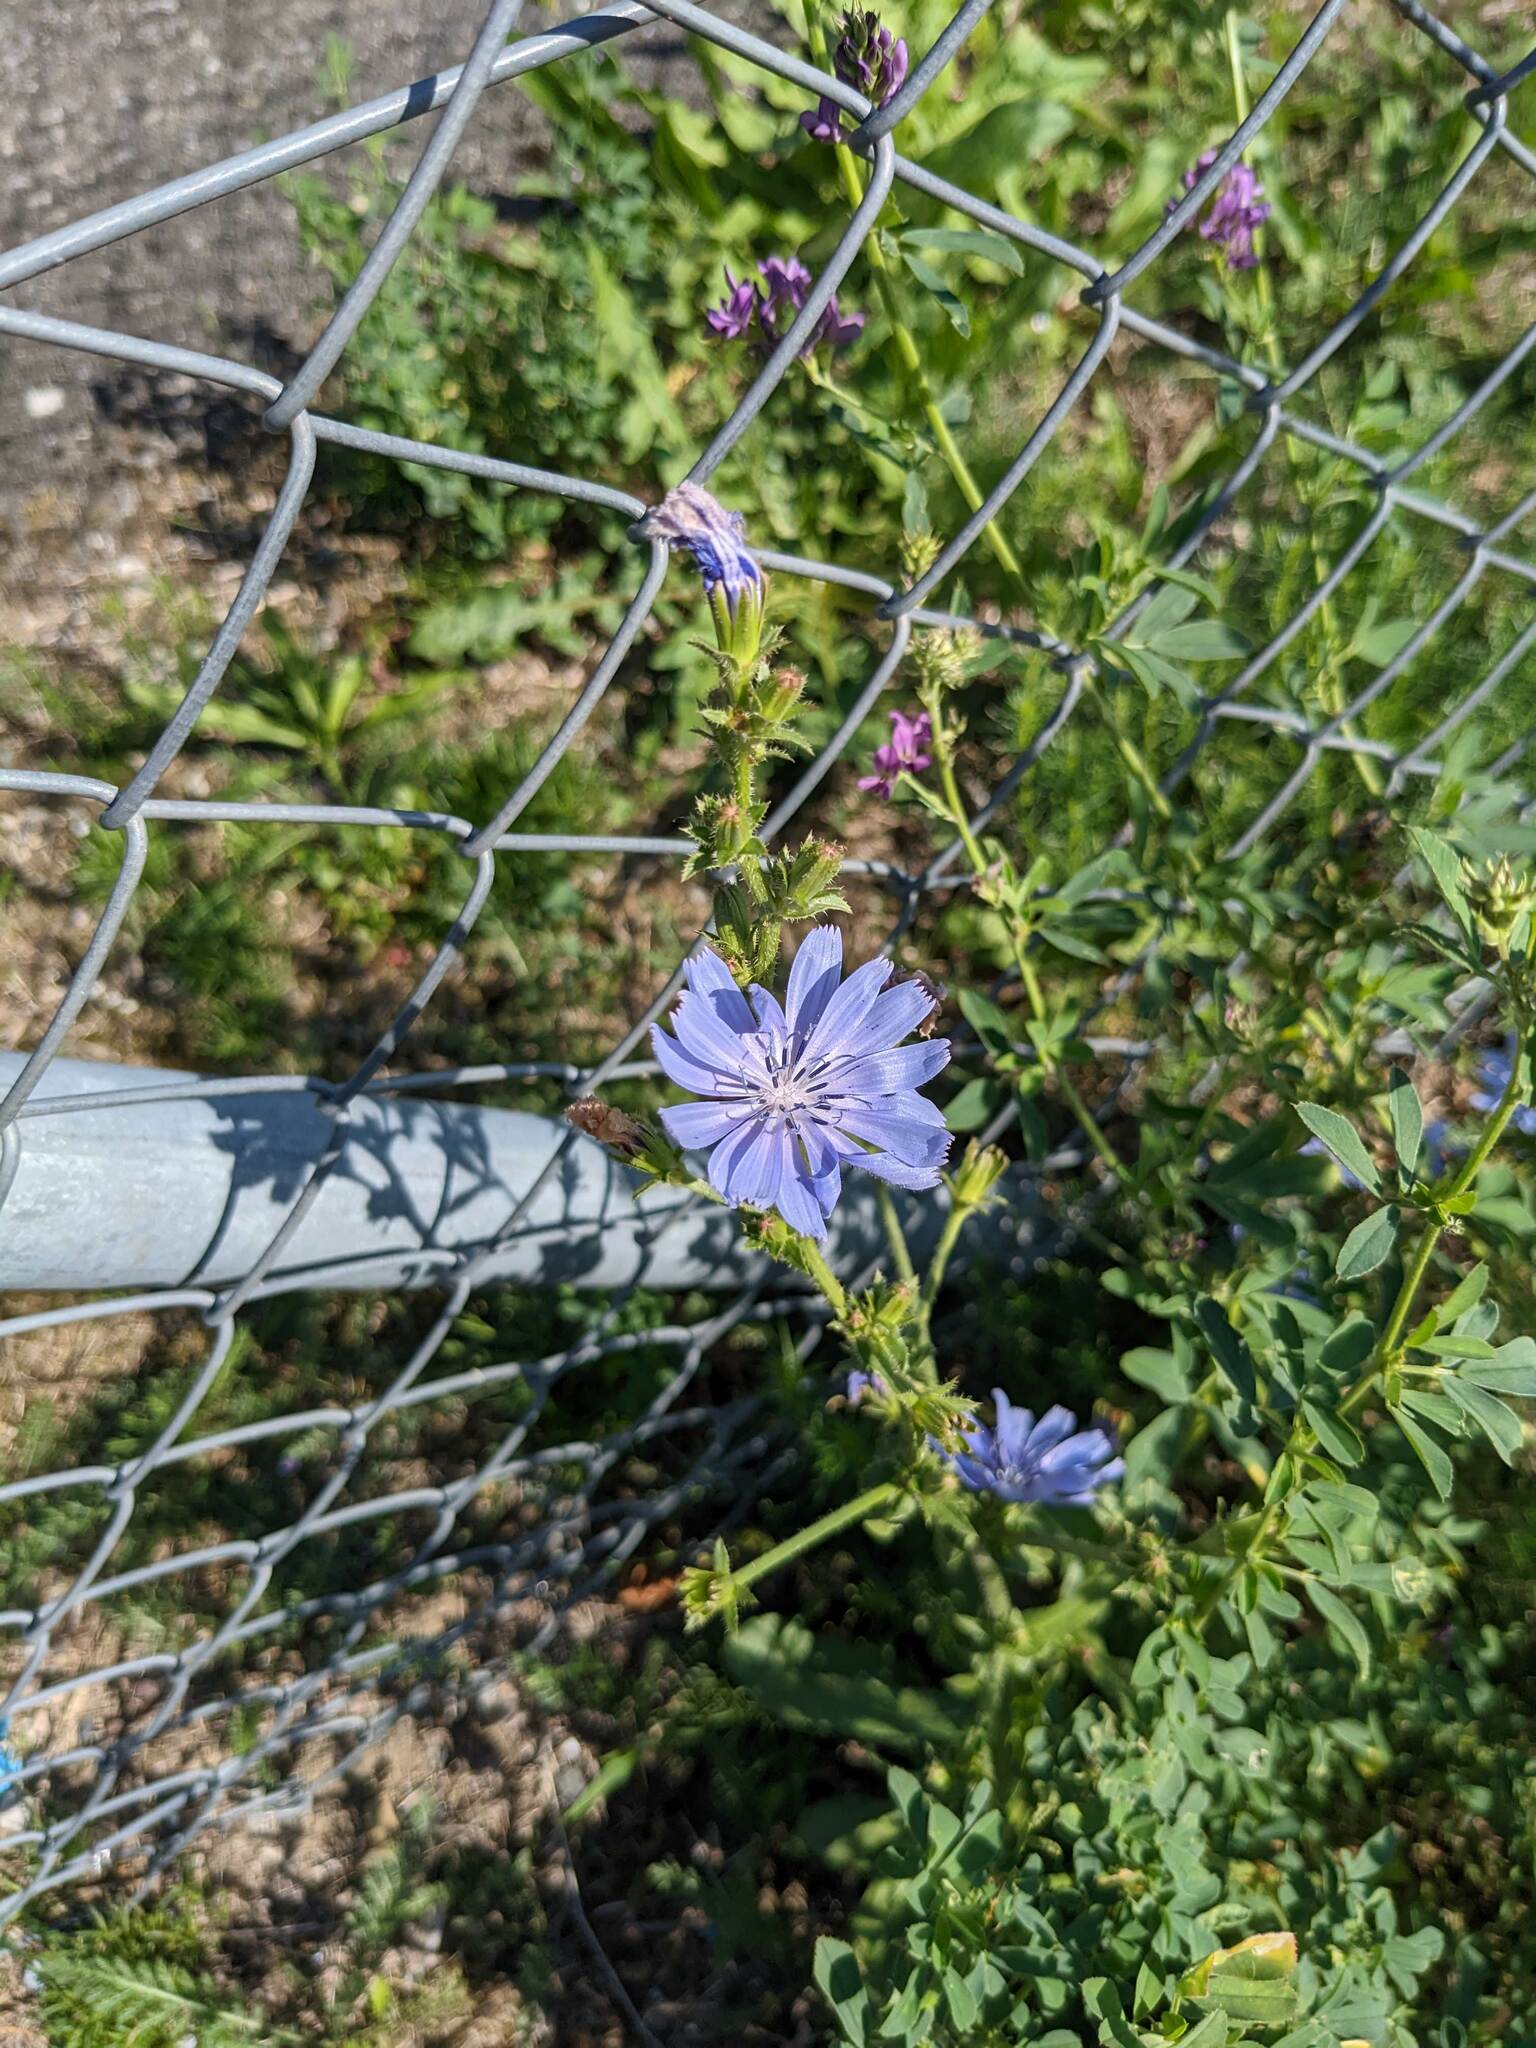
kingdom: Plantae
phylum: Tracheophyta
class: Magnoliopsida
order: Asterales
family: Asteraceae
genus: Cichorium
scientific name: Cichorium intybus
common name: Chicory
